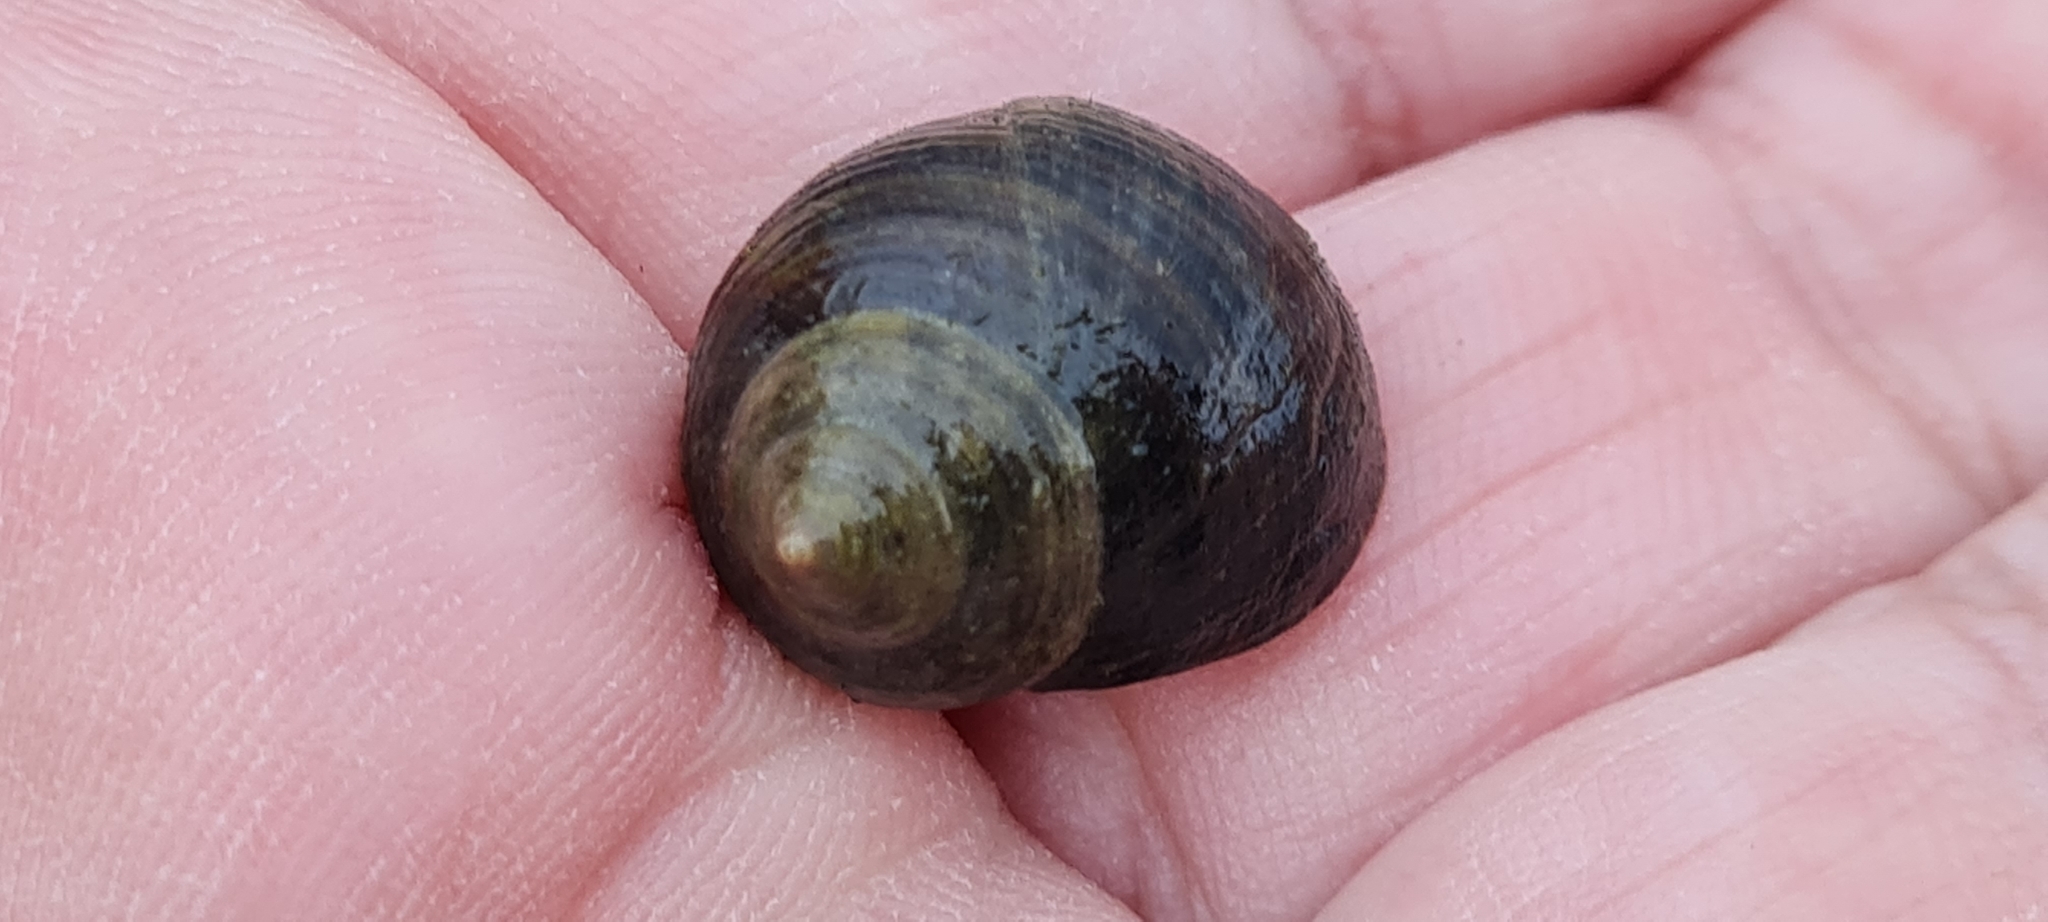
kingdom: Animalia
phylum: Mollusca
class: Gastropoda
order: Littorinimorpha
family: Littorinidae
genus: Littorina
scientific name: Littorina littorea
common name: Common periwinkle
